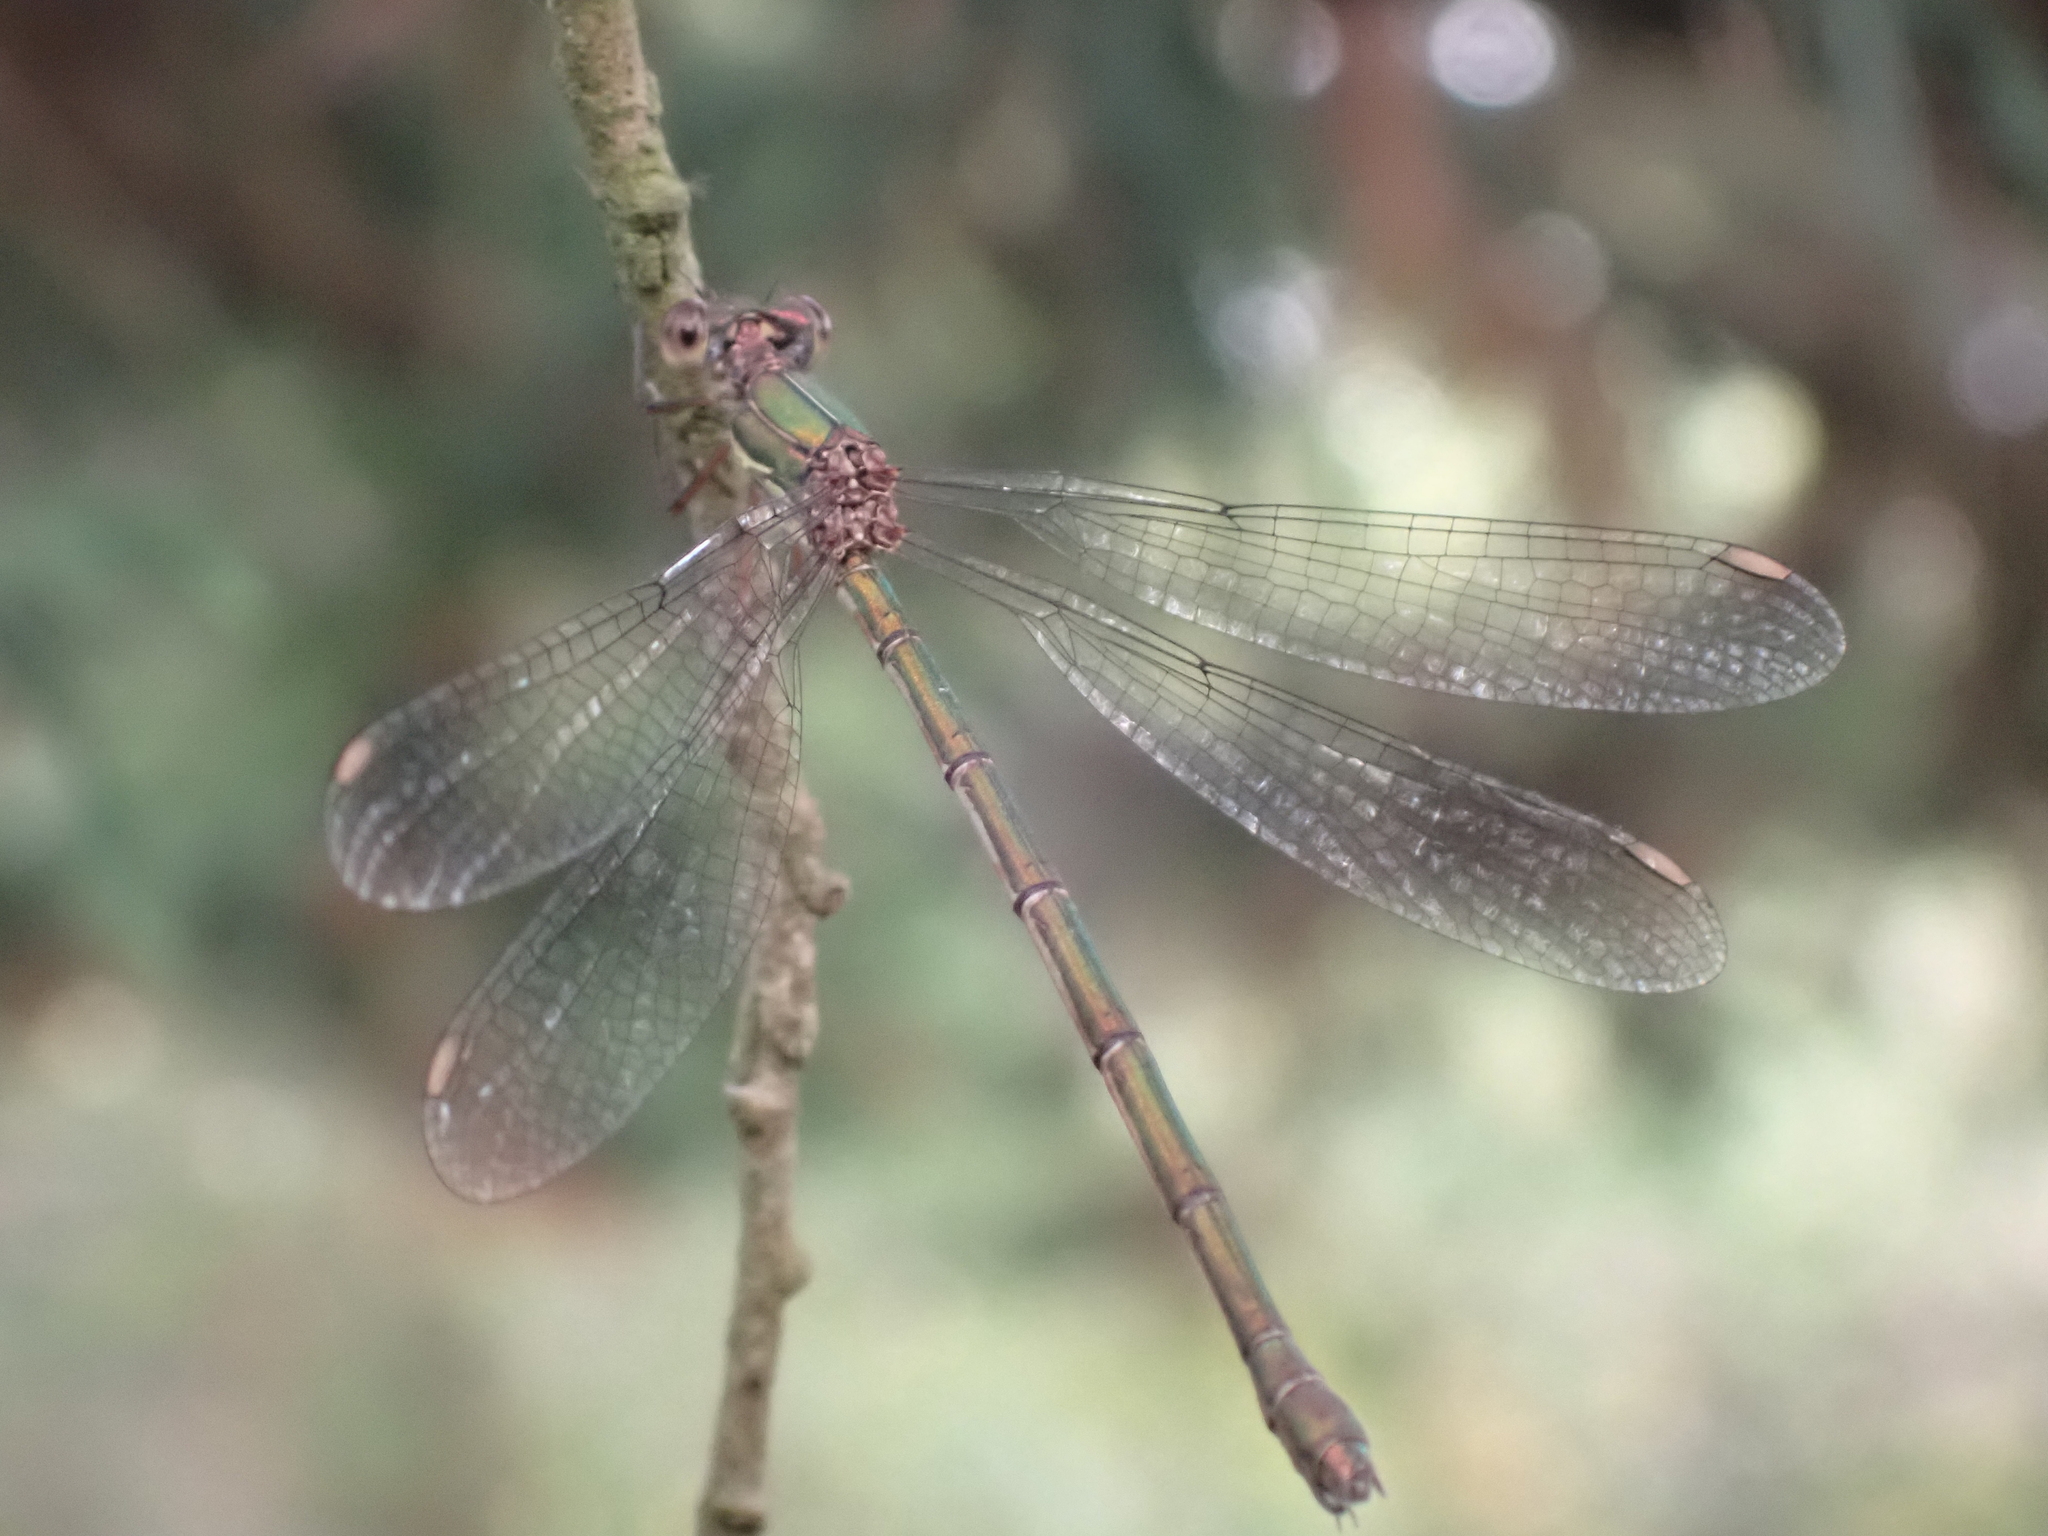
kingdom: Animalia
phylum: Arthropoda
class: Insecta
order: Odonata
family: Lestidae
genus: Chalcolestes
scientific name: Chalcolestes viridis
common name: Green emerald damselfly
